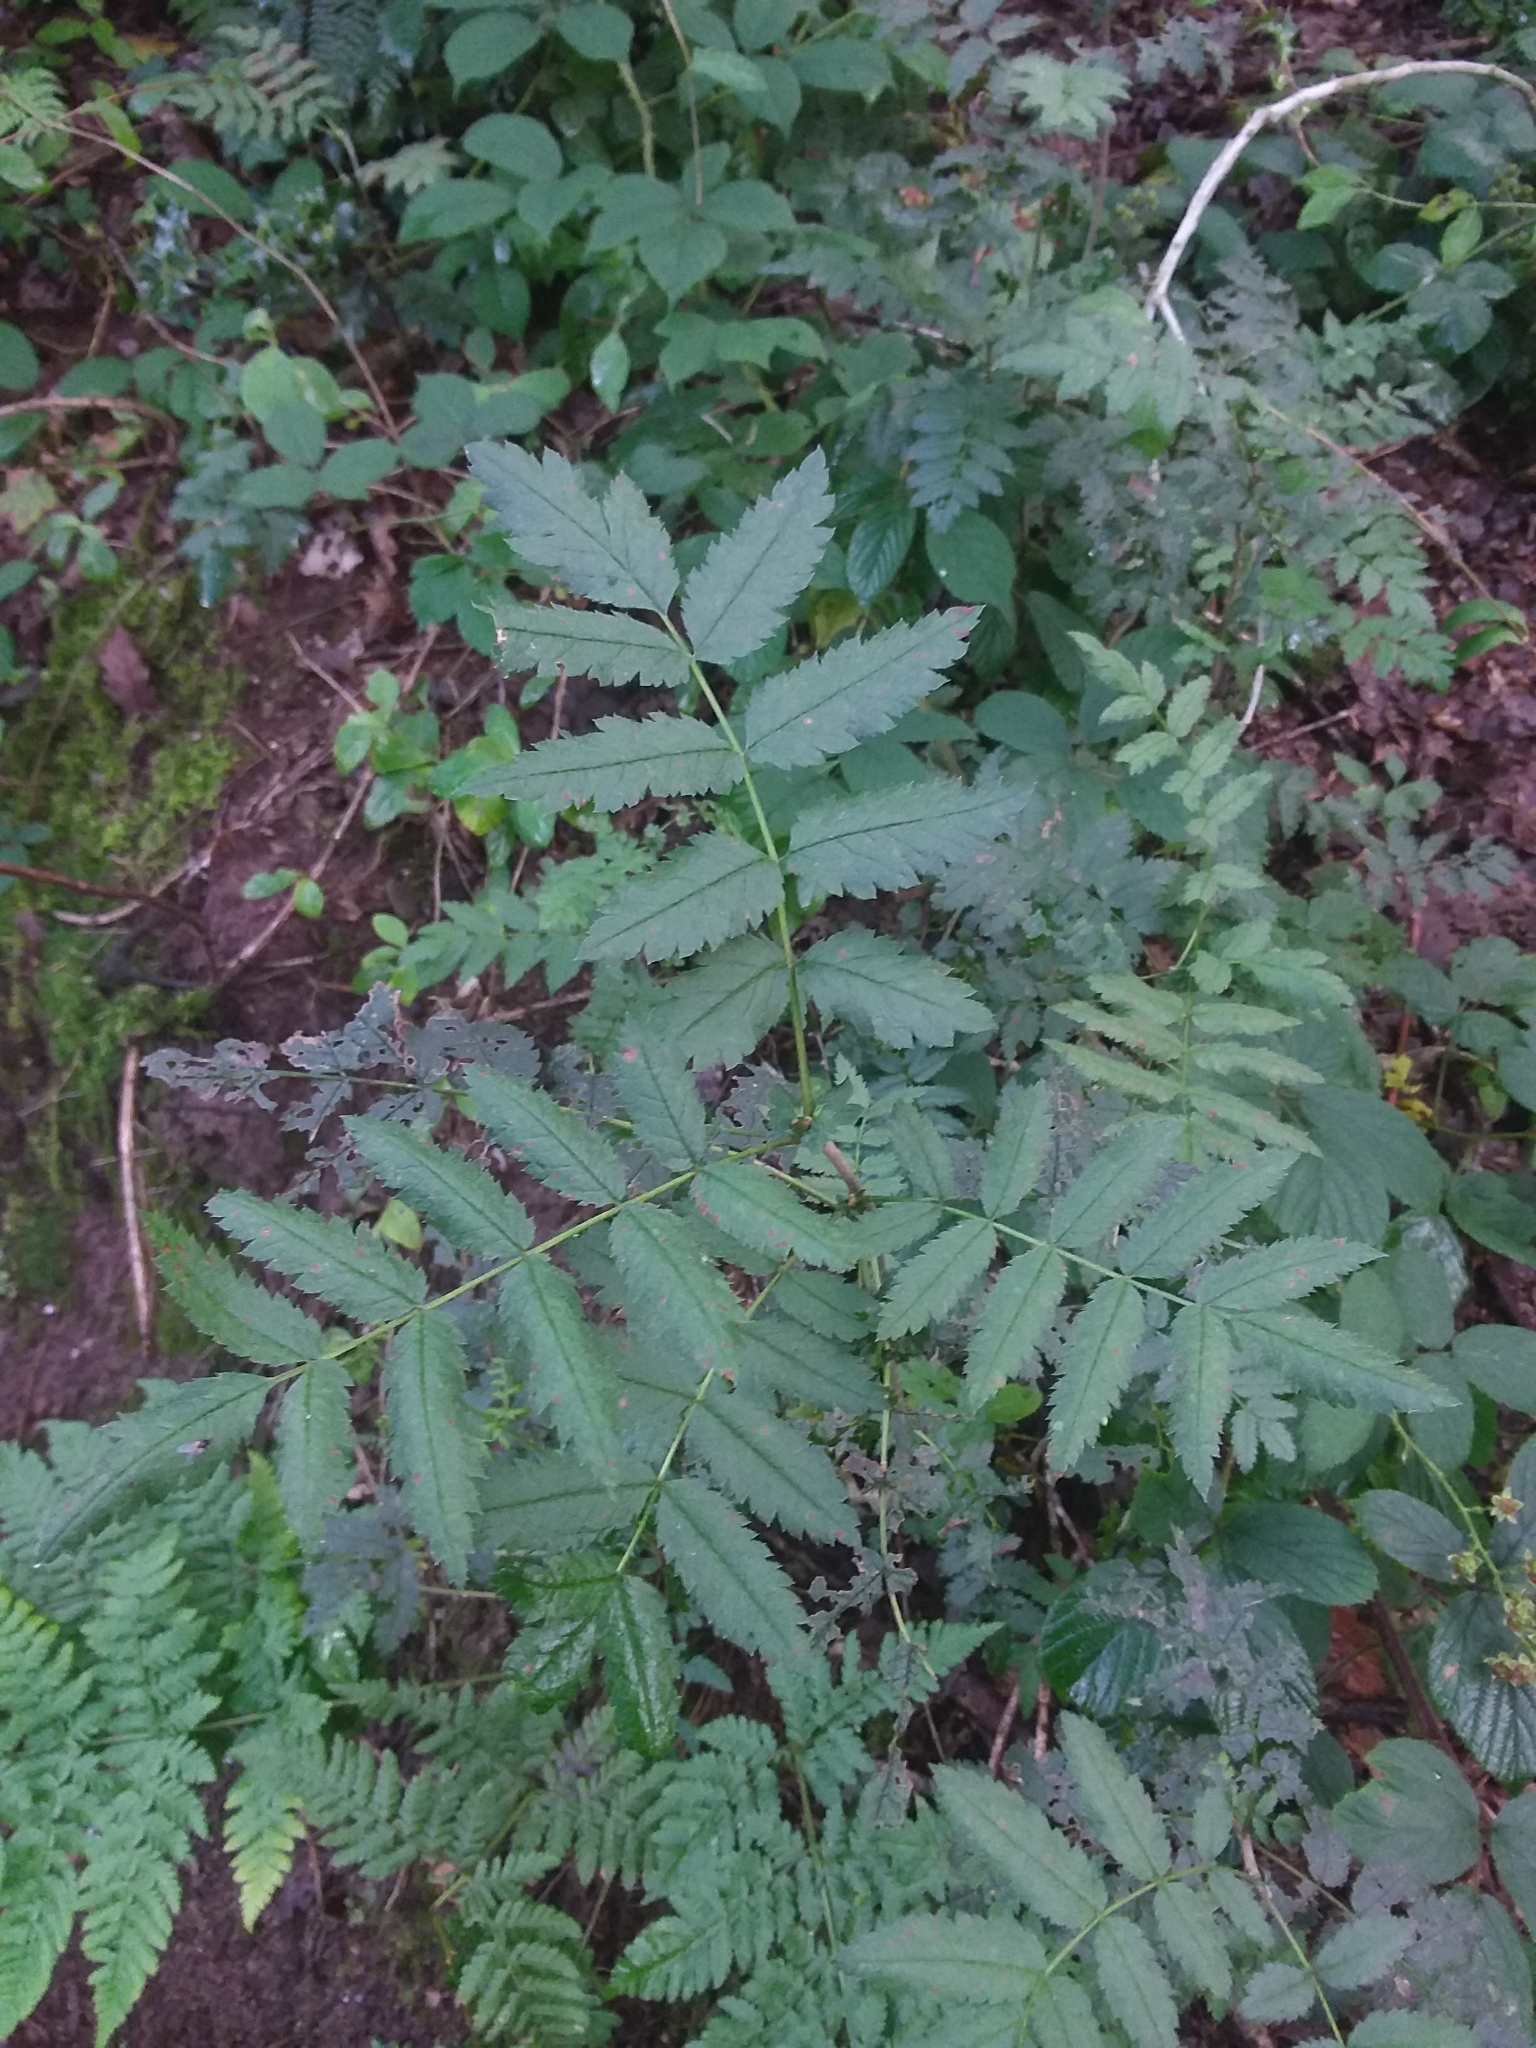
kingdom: Plantae
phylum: Tracheophyta
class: Magnoliopsida
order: Rosales
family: Rosaceae
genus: Sorbus
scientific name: Sorbus aucuparia
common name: Rowan
